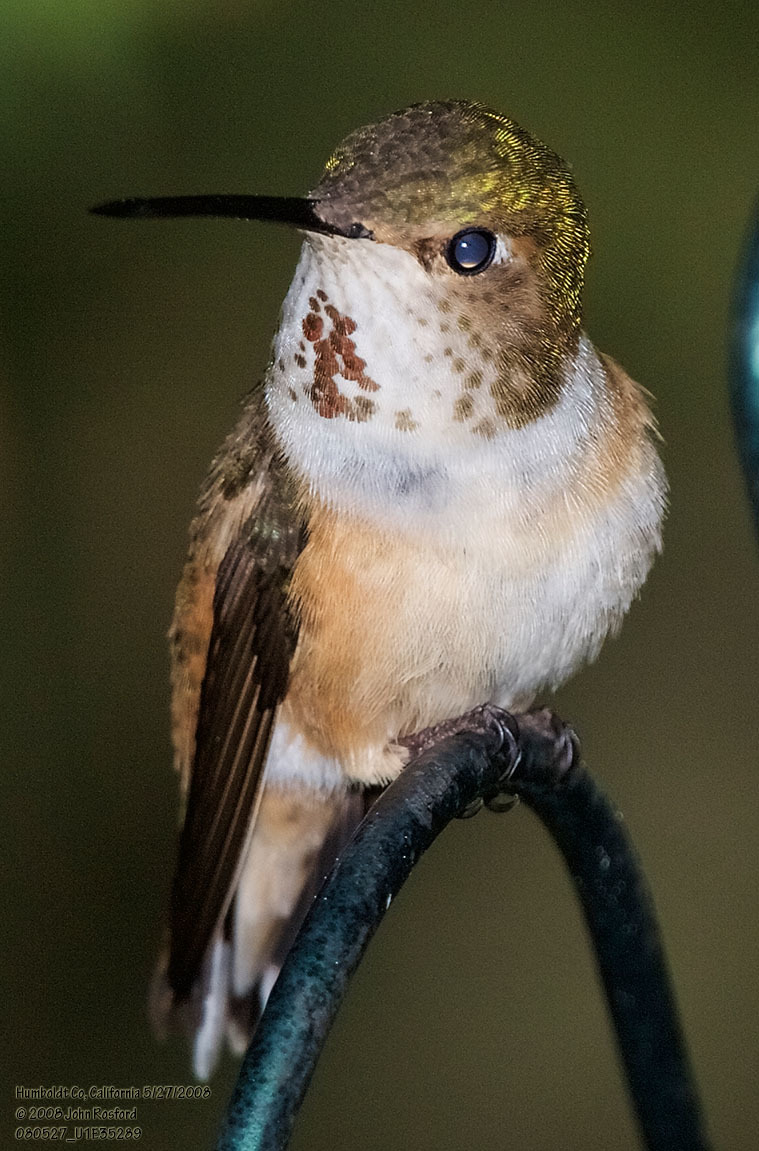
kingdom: Animalia
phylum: Chordata
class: Aves
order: Apodiformes
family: Trochilidae
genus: Selasphorus
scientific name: Selasphorus
